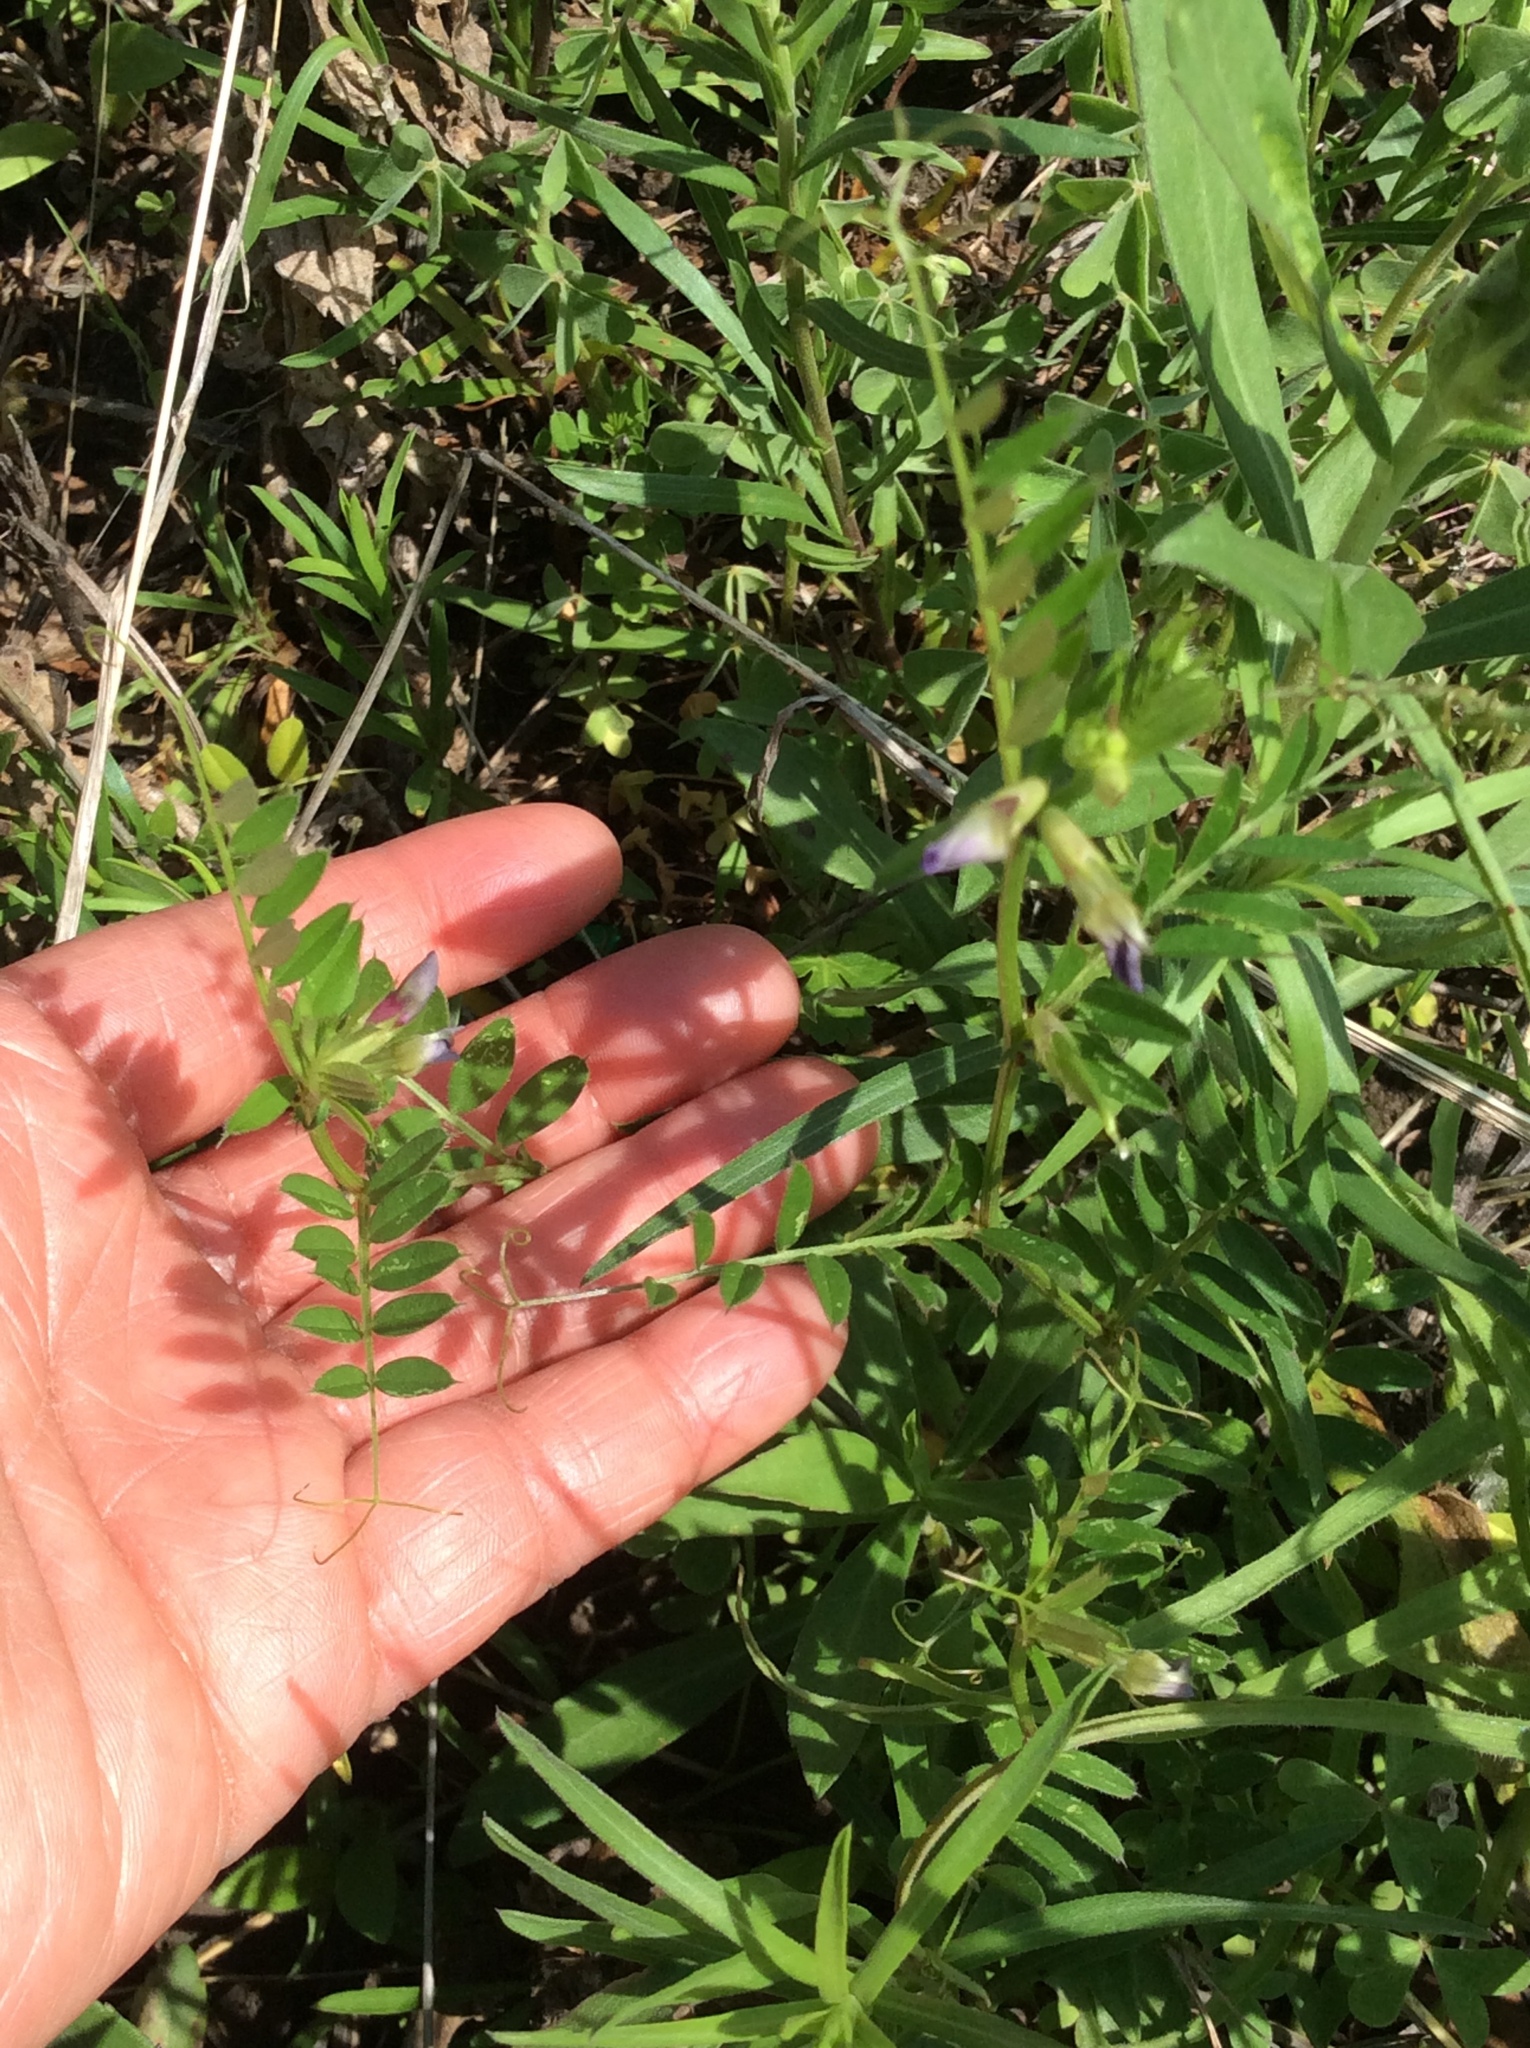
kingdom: Plantae
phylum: Tracheophyta
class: Magnoliopsida
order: Fabales
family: Fabaceae
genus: Vicia
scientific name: Vicia sativa
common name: Garden vetch
